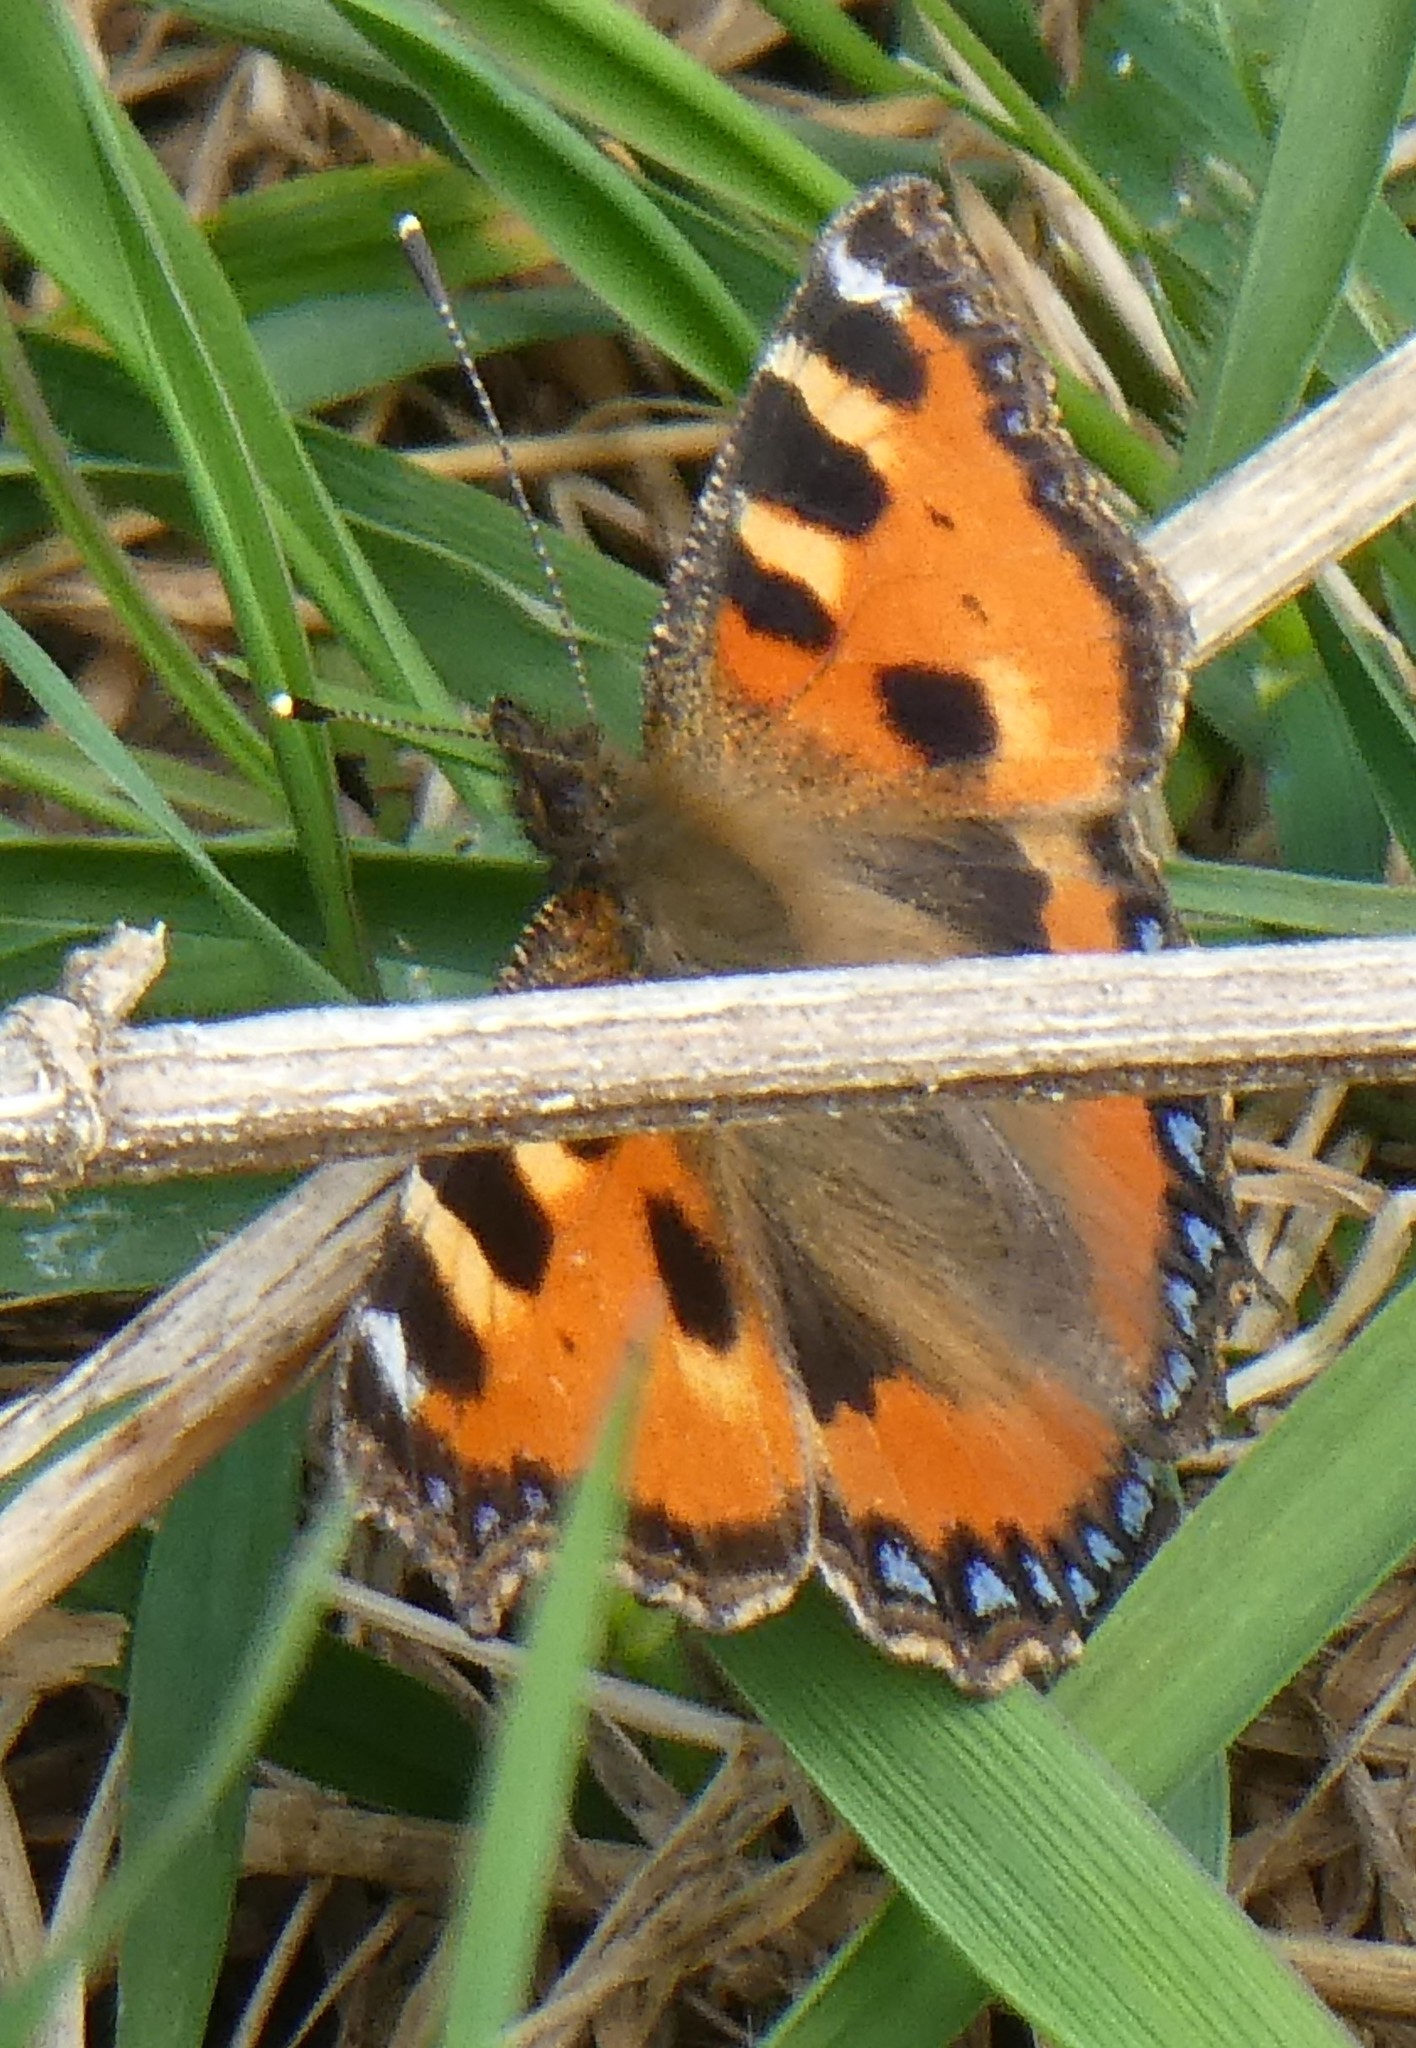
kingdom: Animalia
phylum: Arthropoda
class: Insecta
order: Lepidoptera
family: Nymphalidae
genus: Aglais
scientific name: Aglais urticae
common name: Small tortoiseshell
